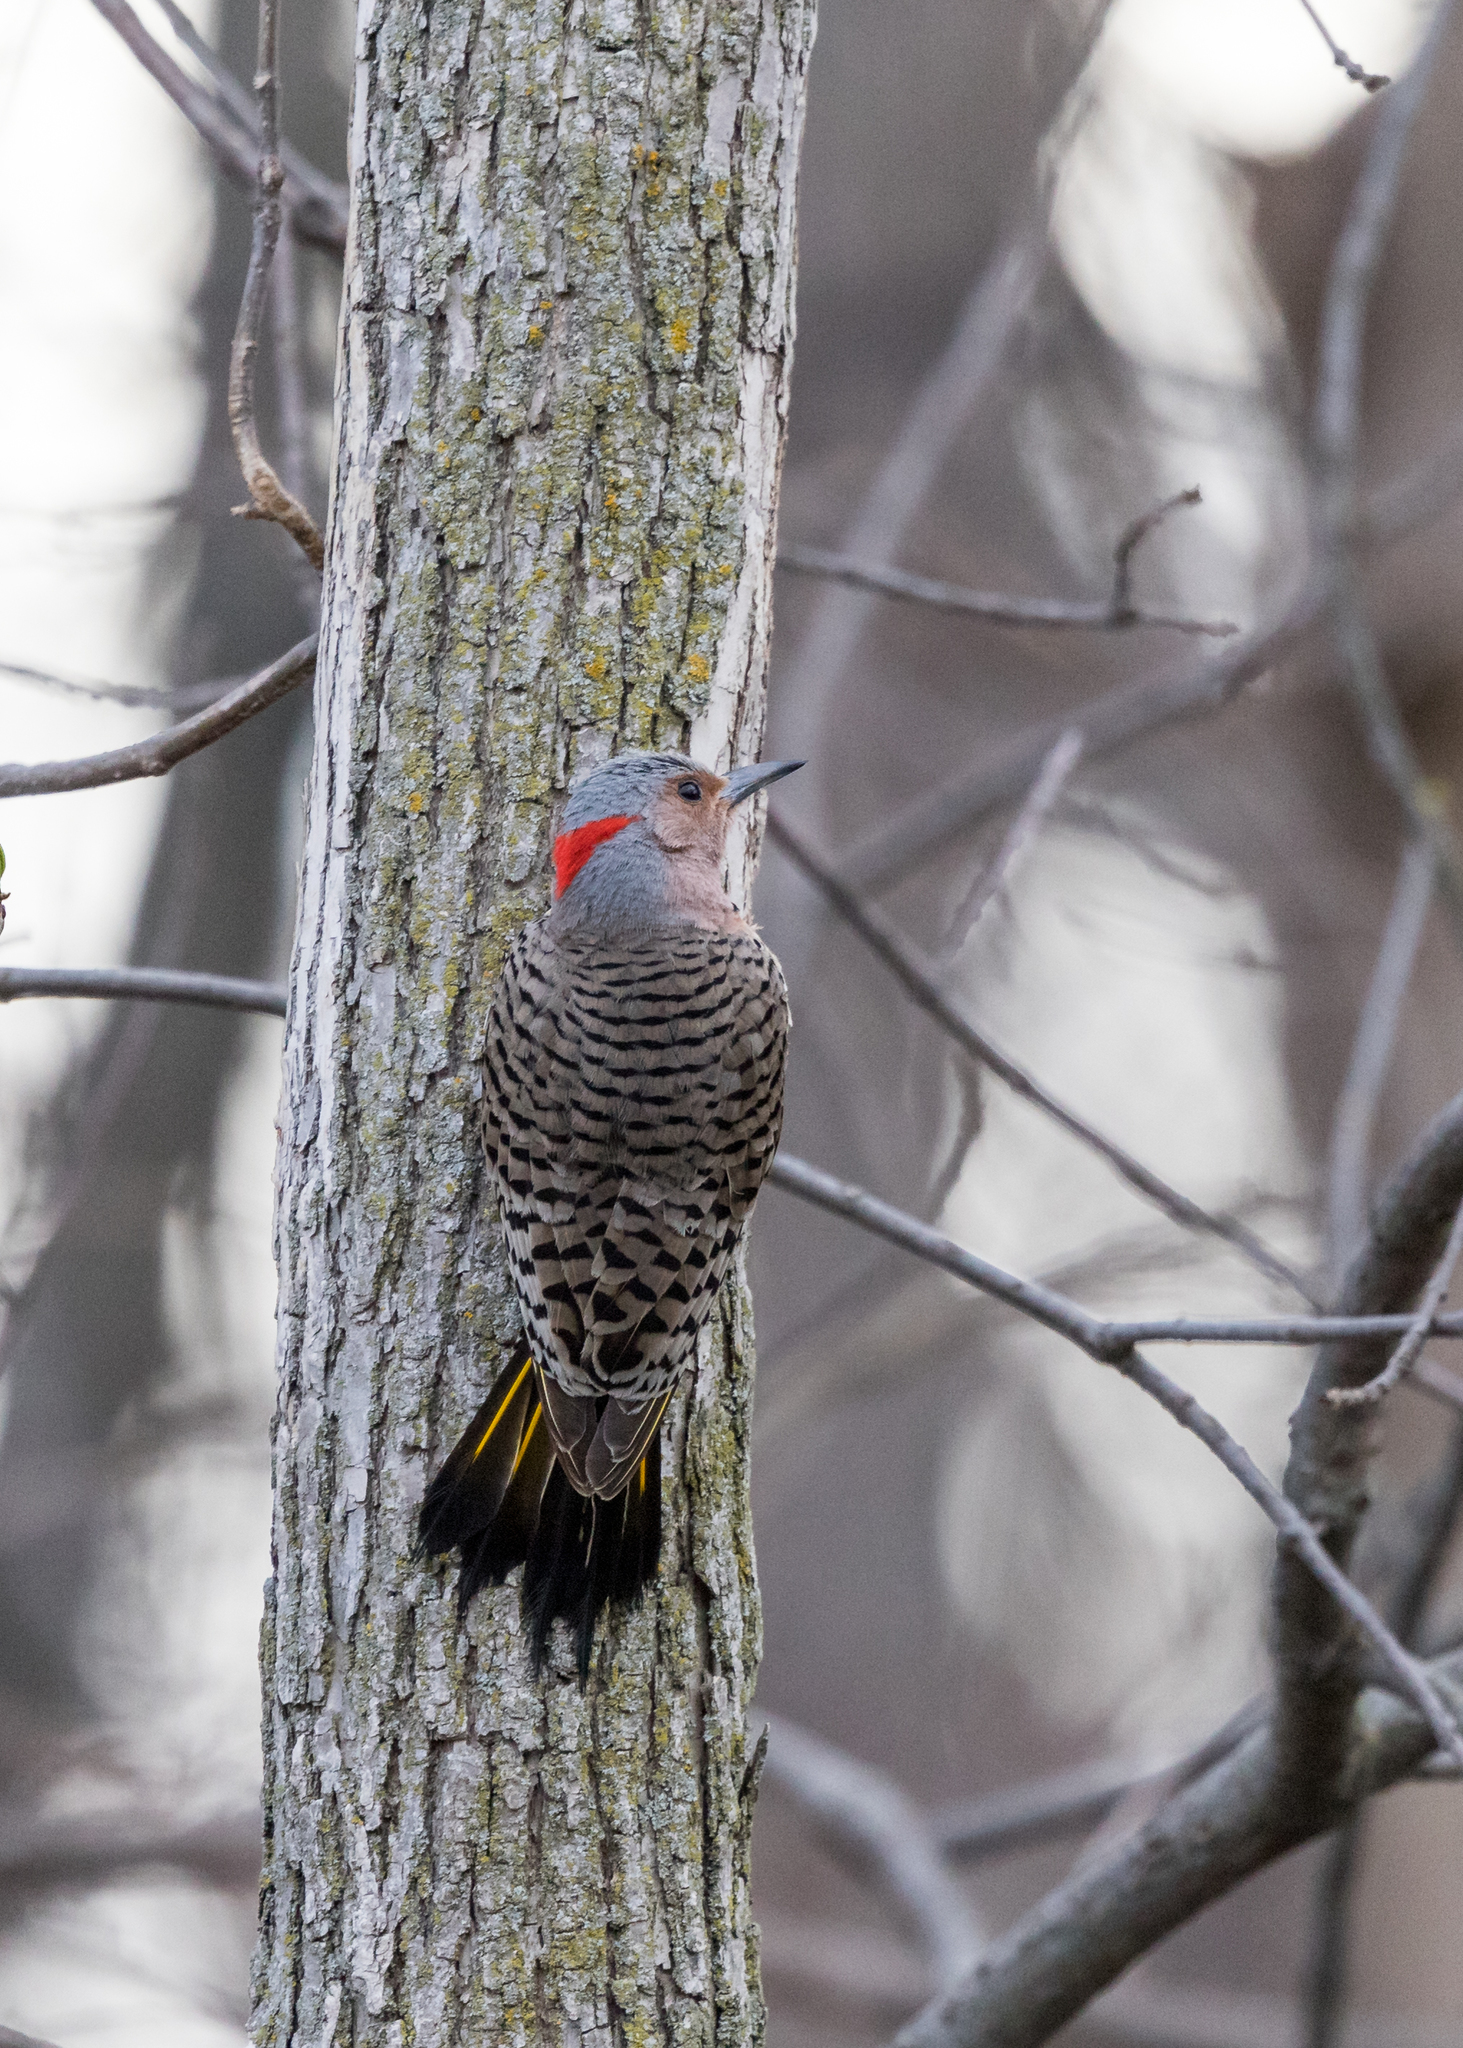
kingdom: Animalia
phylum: Chordata
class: Aves
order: Piciformes
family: Picidae
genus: Colaptes
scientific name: Colaptes auratus
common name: Northern flicker
